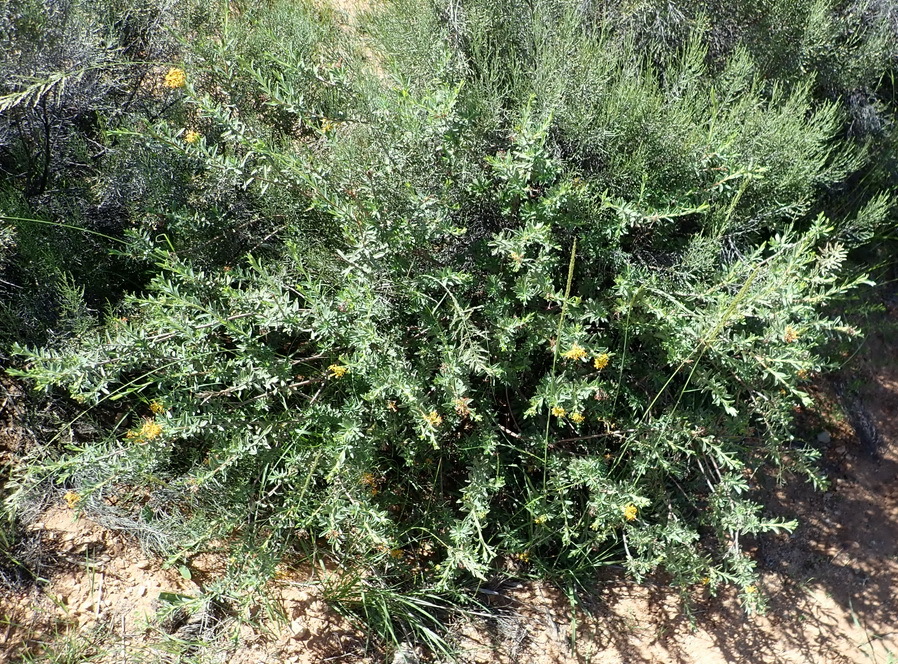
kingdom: Plantae
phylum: Tracheophyta
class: Magnoliopsida
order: Malvales
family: Thymelaeaceae
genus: Gnidia
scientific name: Gnidia cuneata
